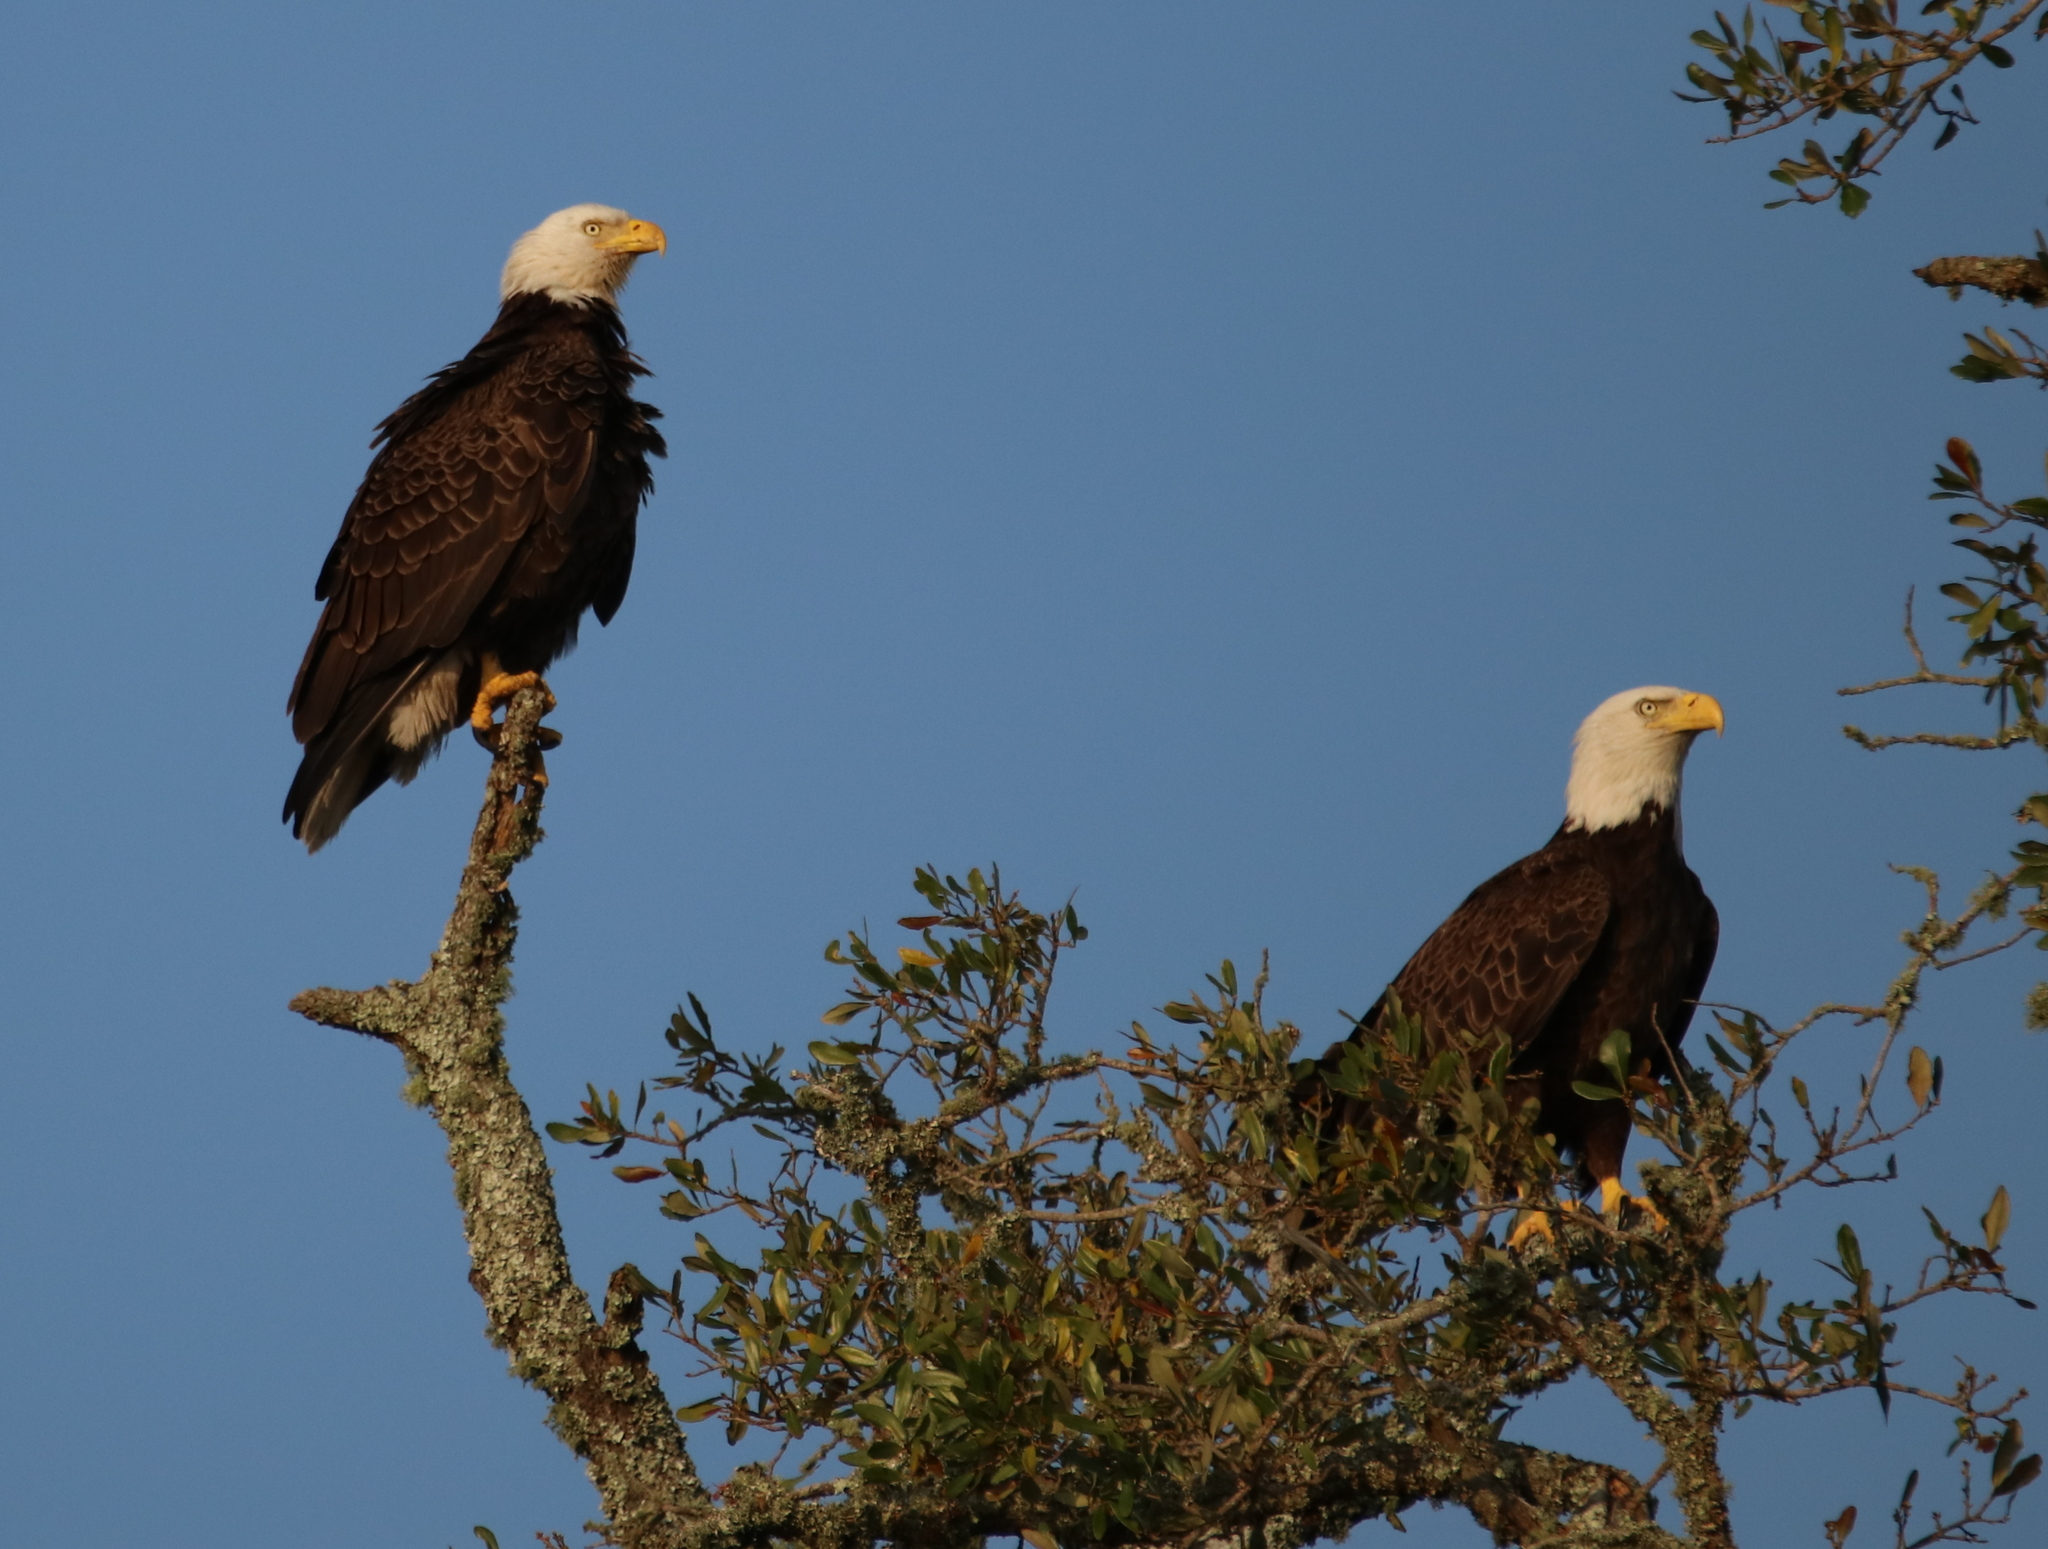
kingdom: Animalia
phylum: Chordata
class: Aves
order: Accipitriformes
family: Accipitridae
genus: Haliaeetus
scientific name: Haliaeetus leucocephalus
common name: Bald eagle
